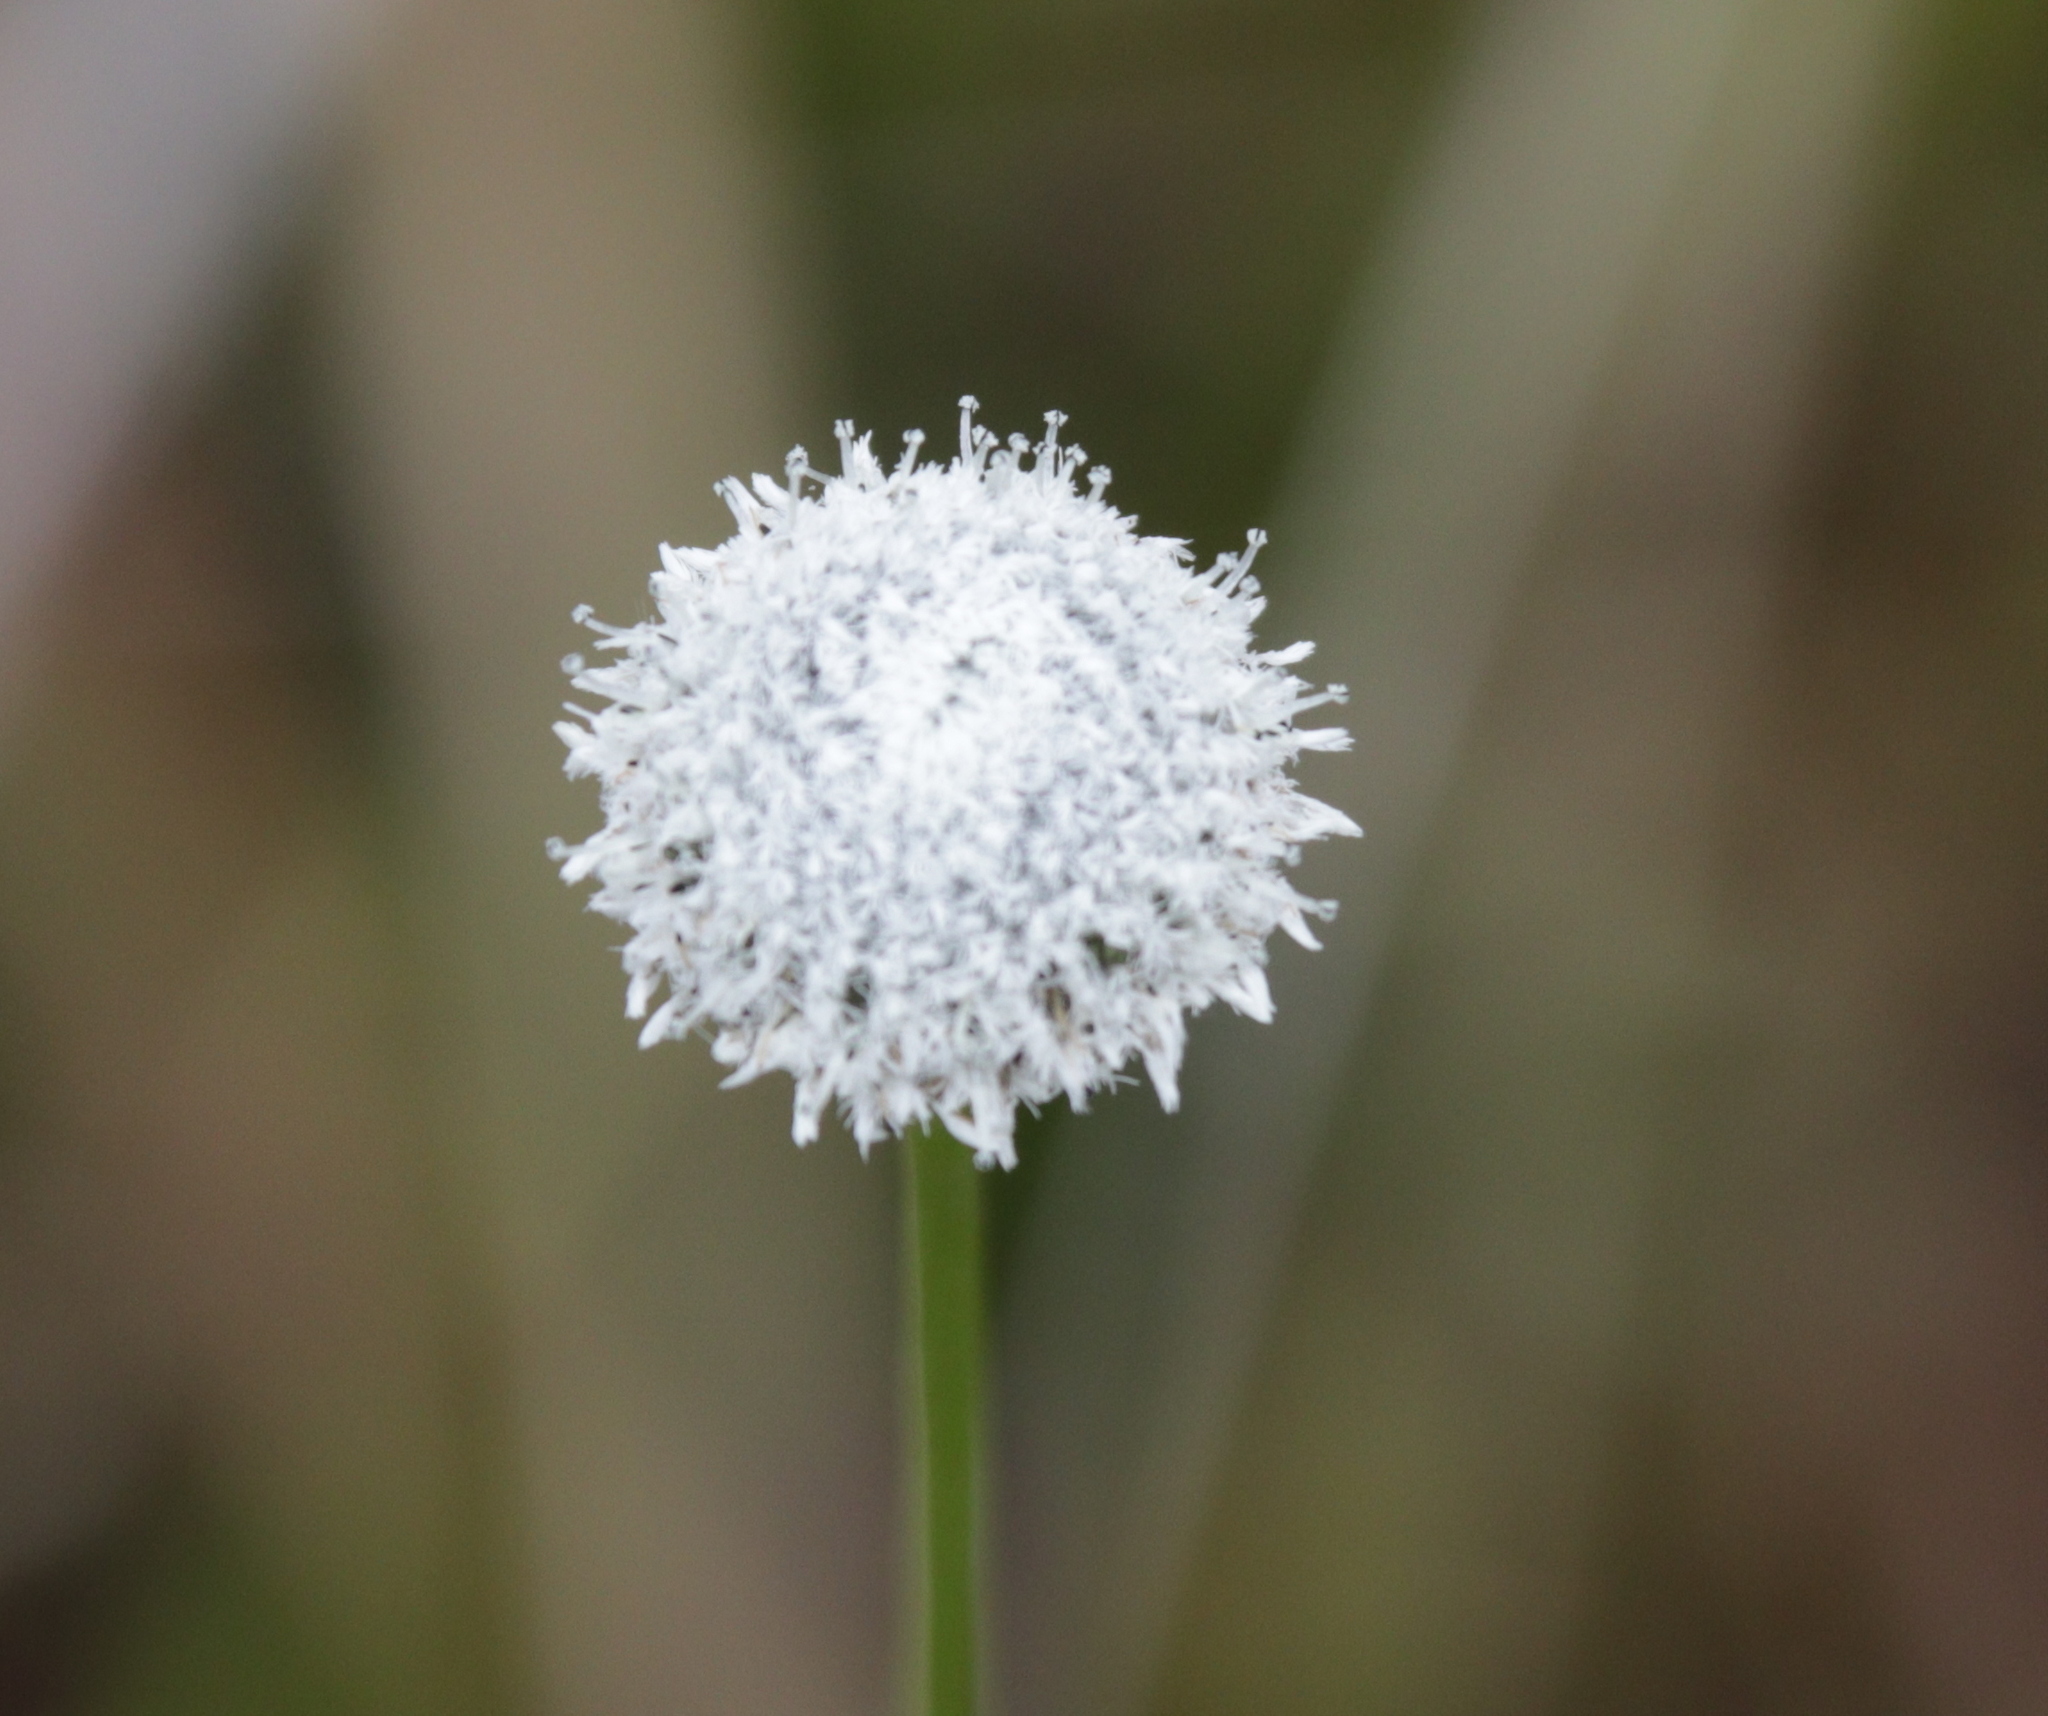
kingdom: Plantae
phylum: Tracheophyta
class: Liliopsida
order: Poales
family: Eriocaulaceae
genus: Eriocaulon
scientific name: Eriocaulon compressum
